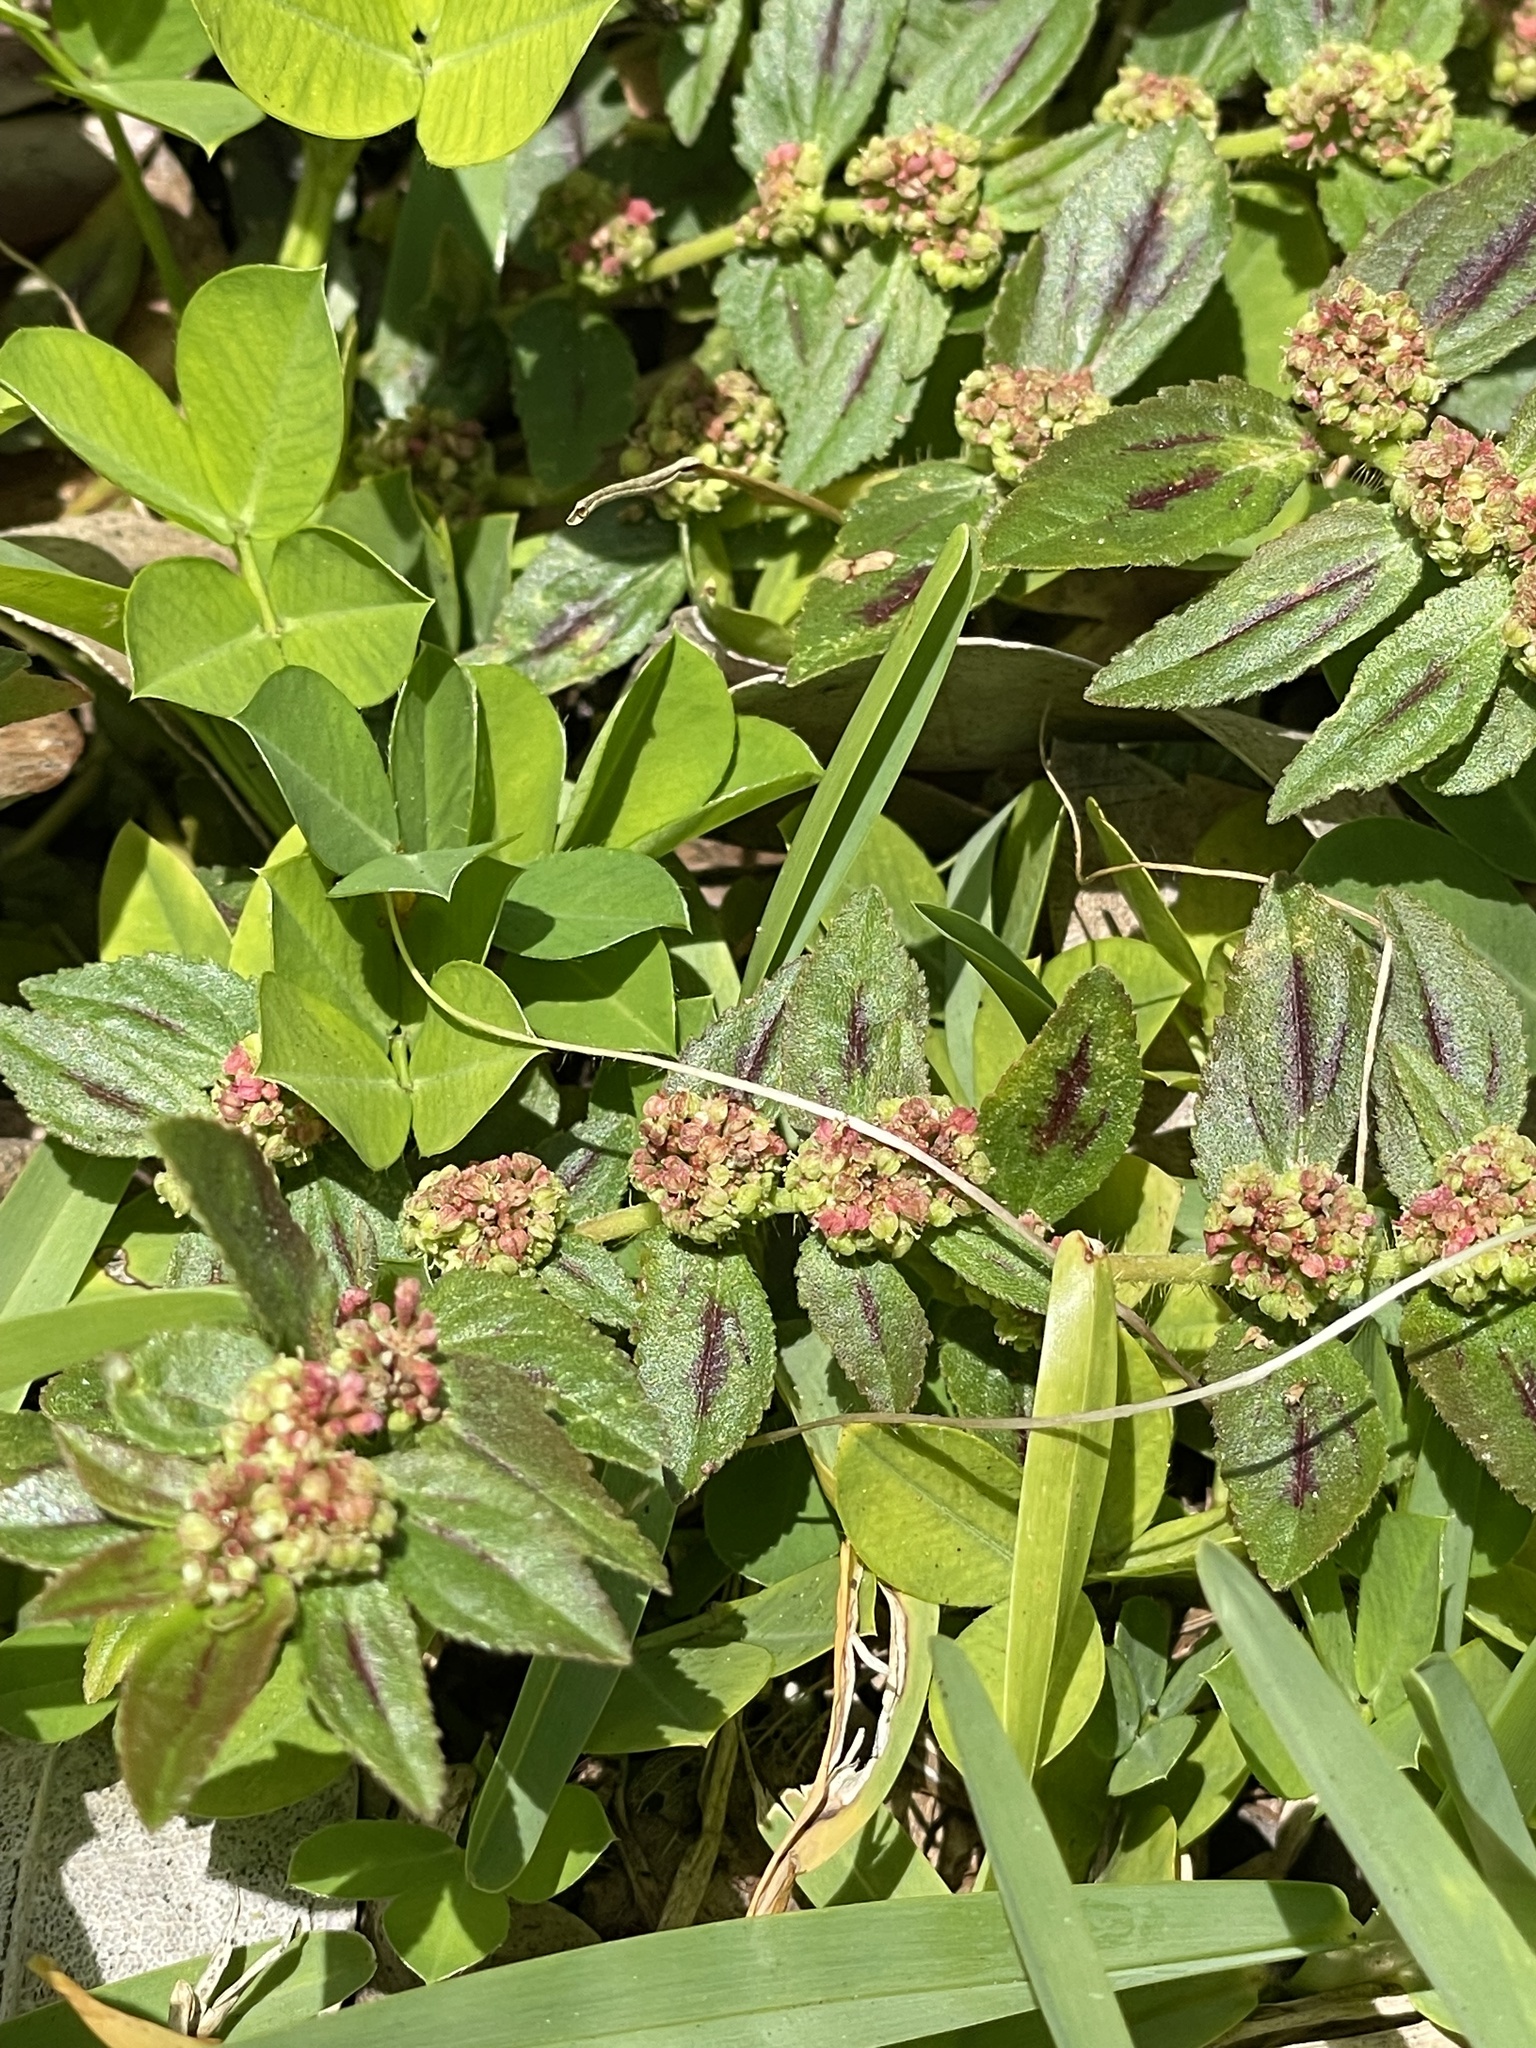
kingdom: Plantae
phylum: Tracheophyta
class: Magnoliopsida
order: Malpighiales
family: Euphorbiaceae
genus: Euphorbia
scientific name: Euphorbia hirta
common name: Pillpod sandmat
